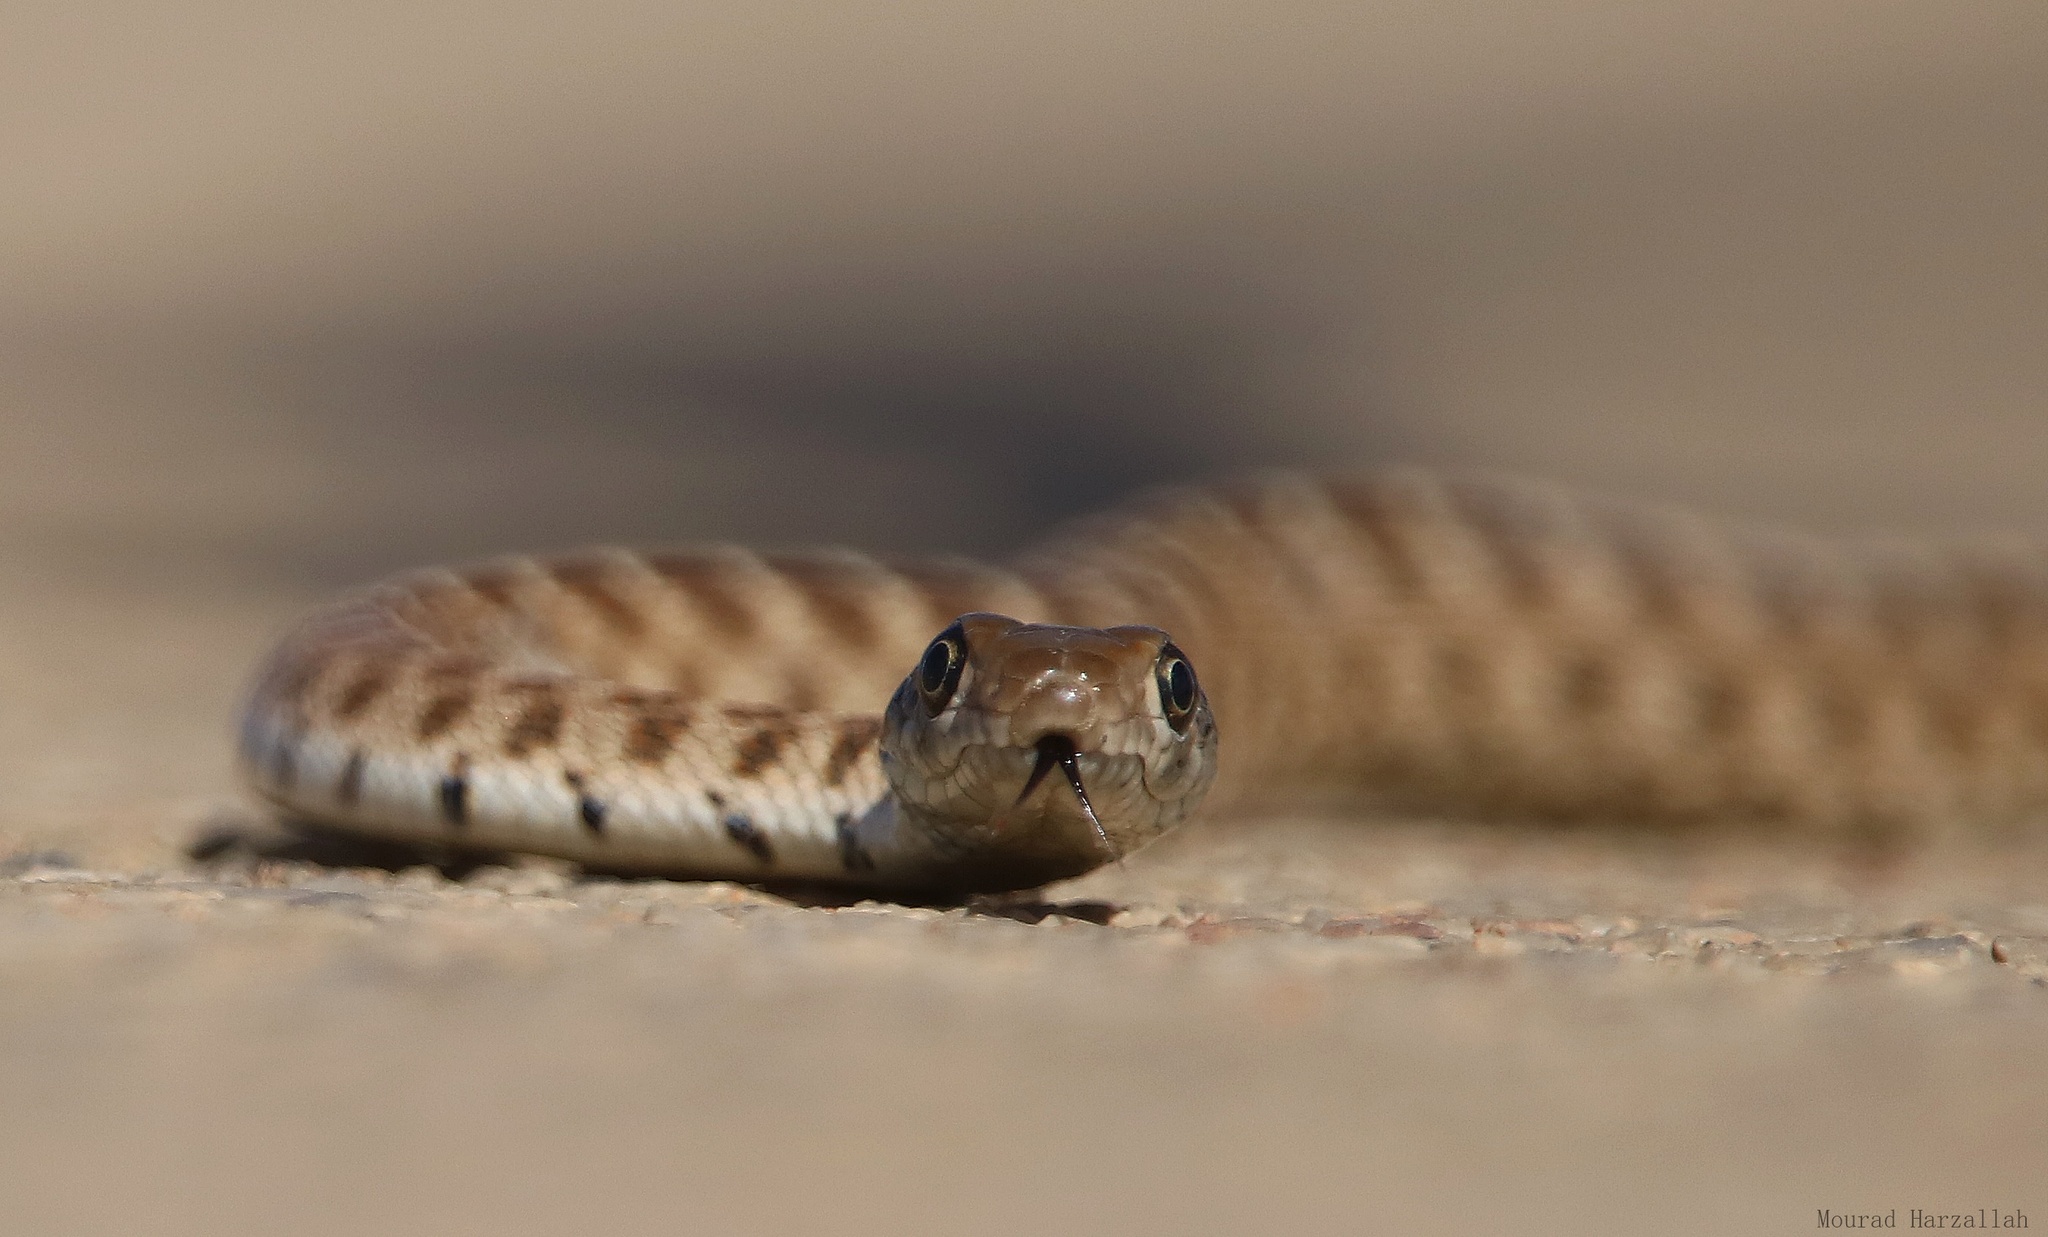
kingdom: Animalia
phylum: Chordata
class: Squamata
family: Colubridae
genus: Hemorrhois
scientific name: Hemorrhois algirus
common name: Algerian whip snake
